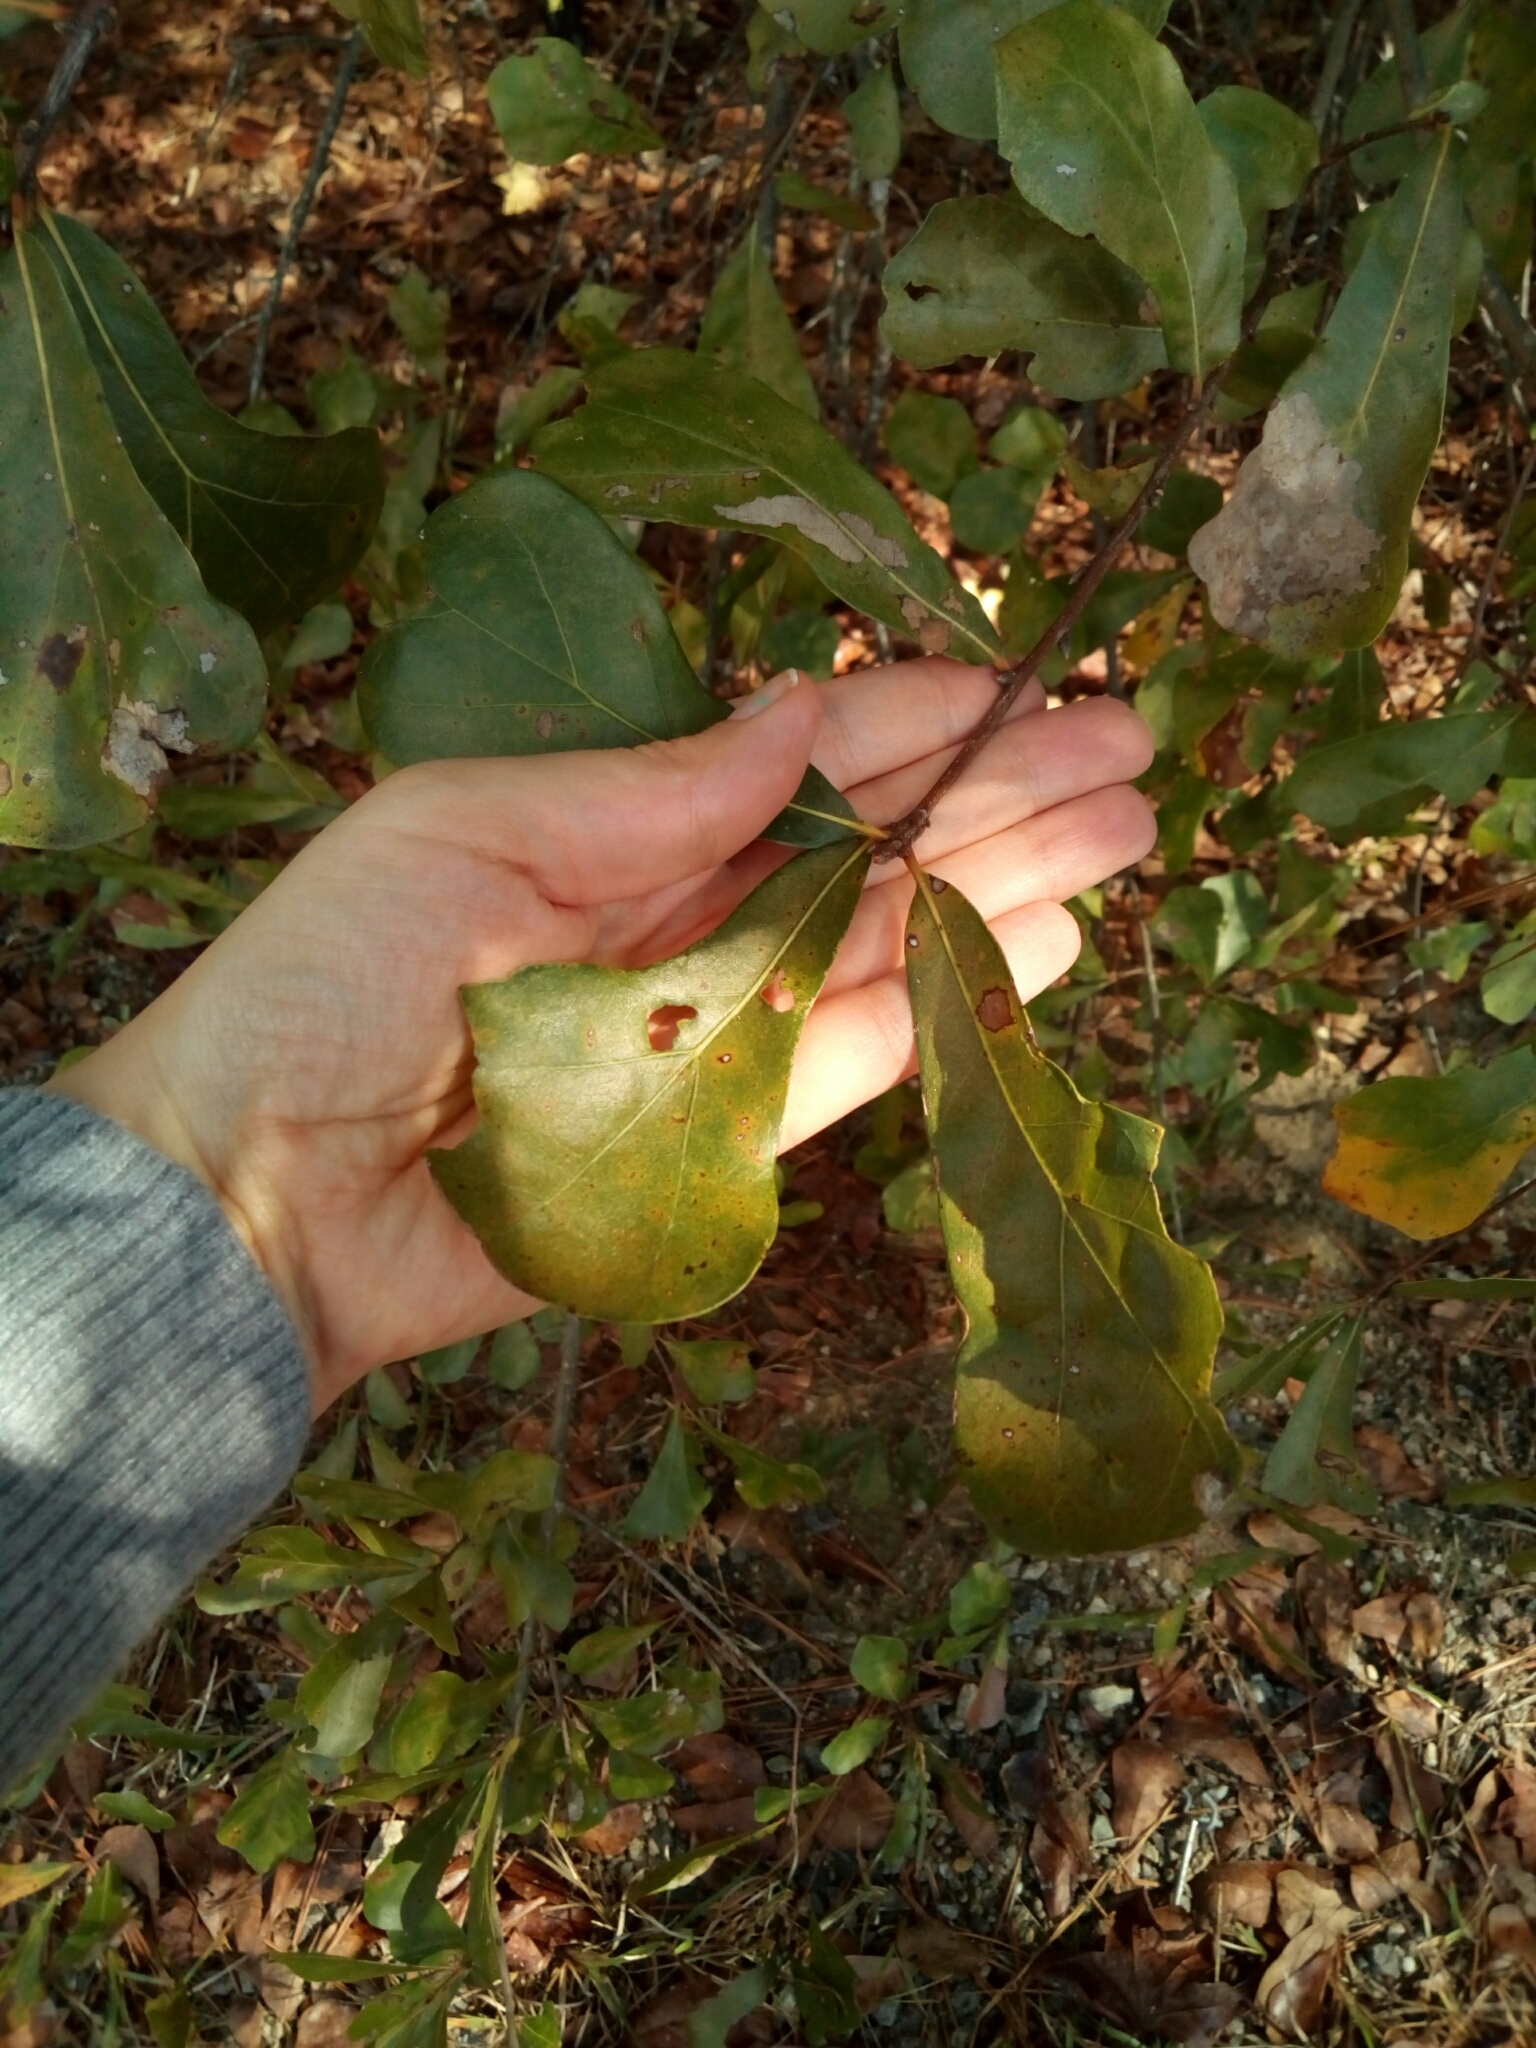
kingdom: Plantae
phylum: Tracheophyta
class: Magnoliopsida
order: Fagales
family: Fagaceae
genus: Quercus
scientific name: Quercus nigra
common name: Water oak
